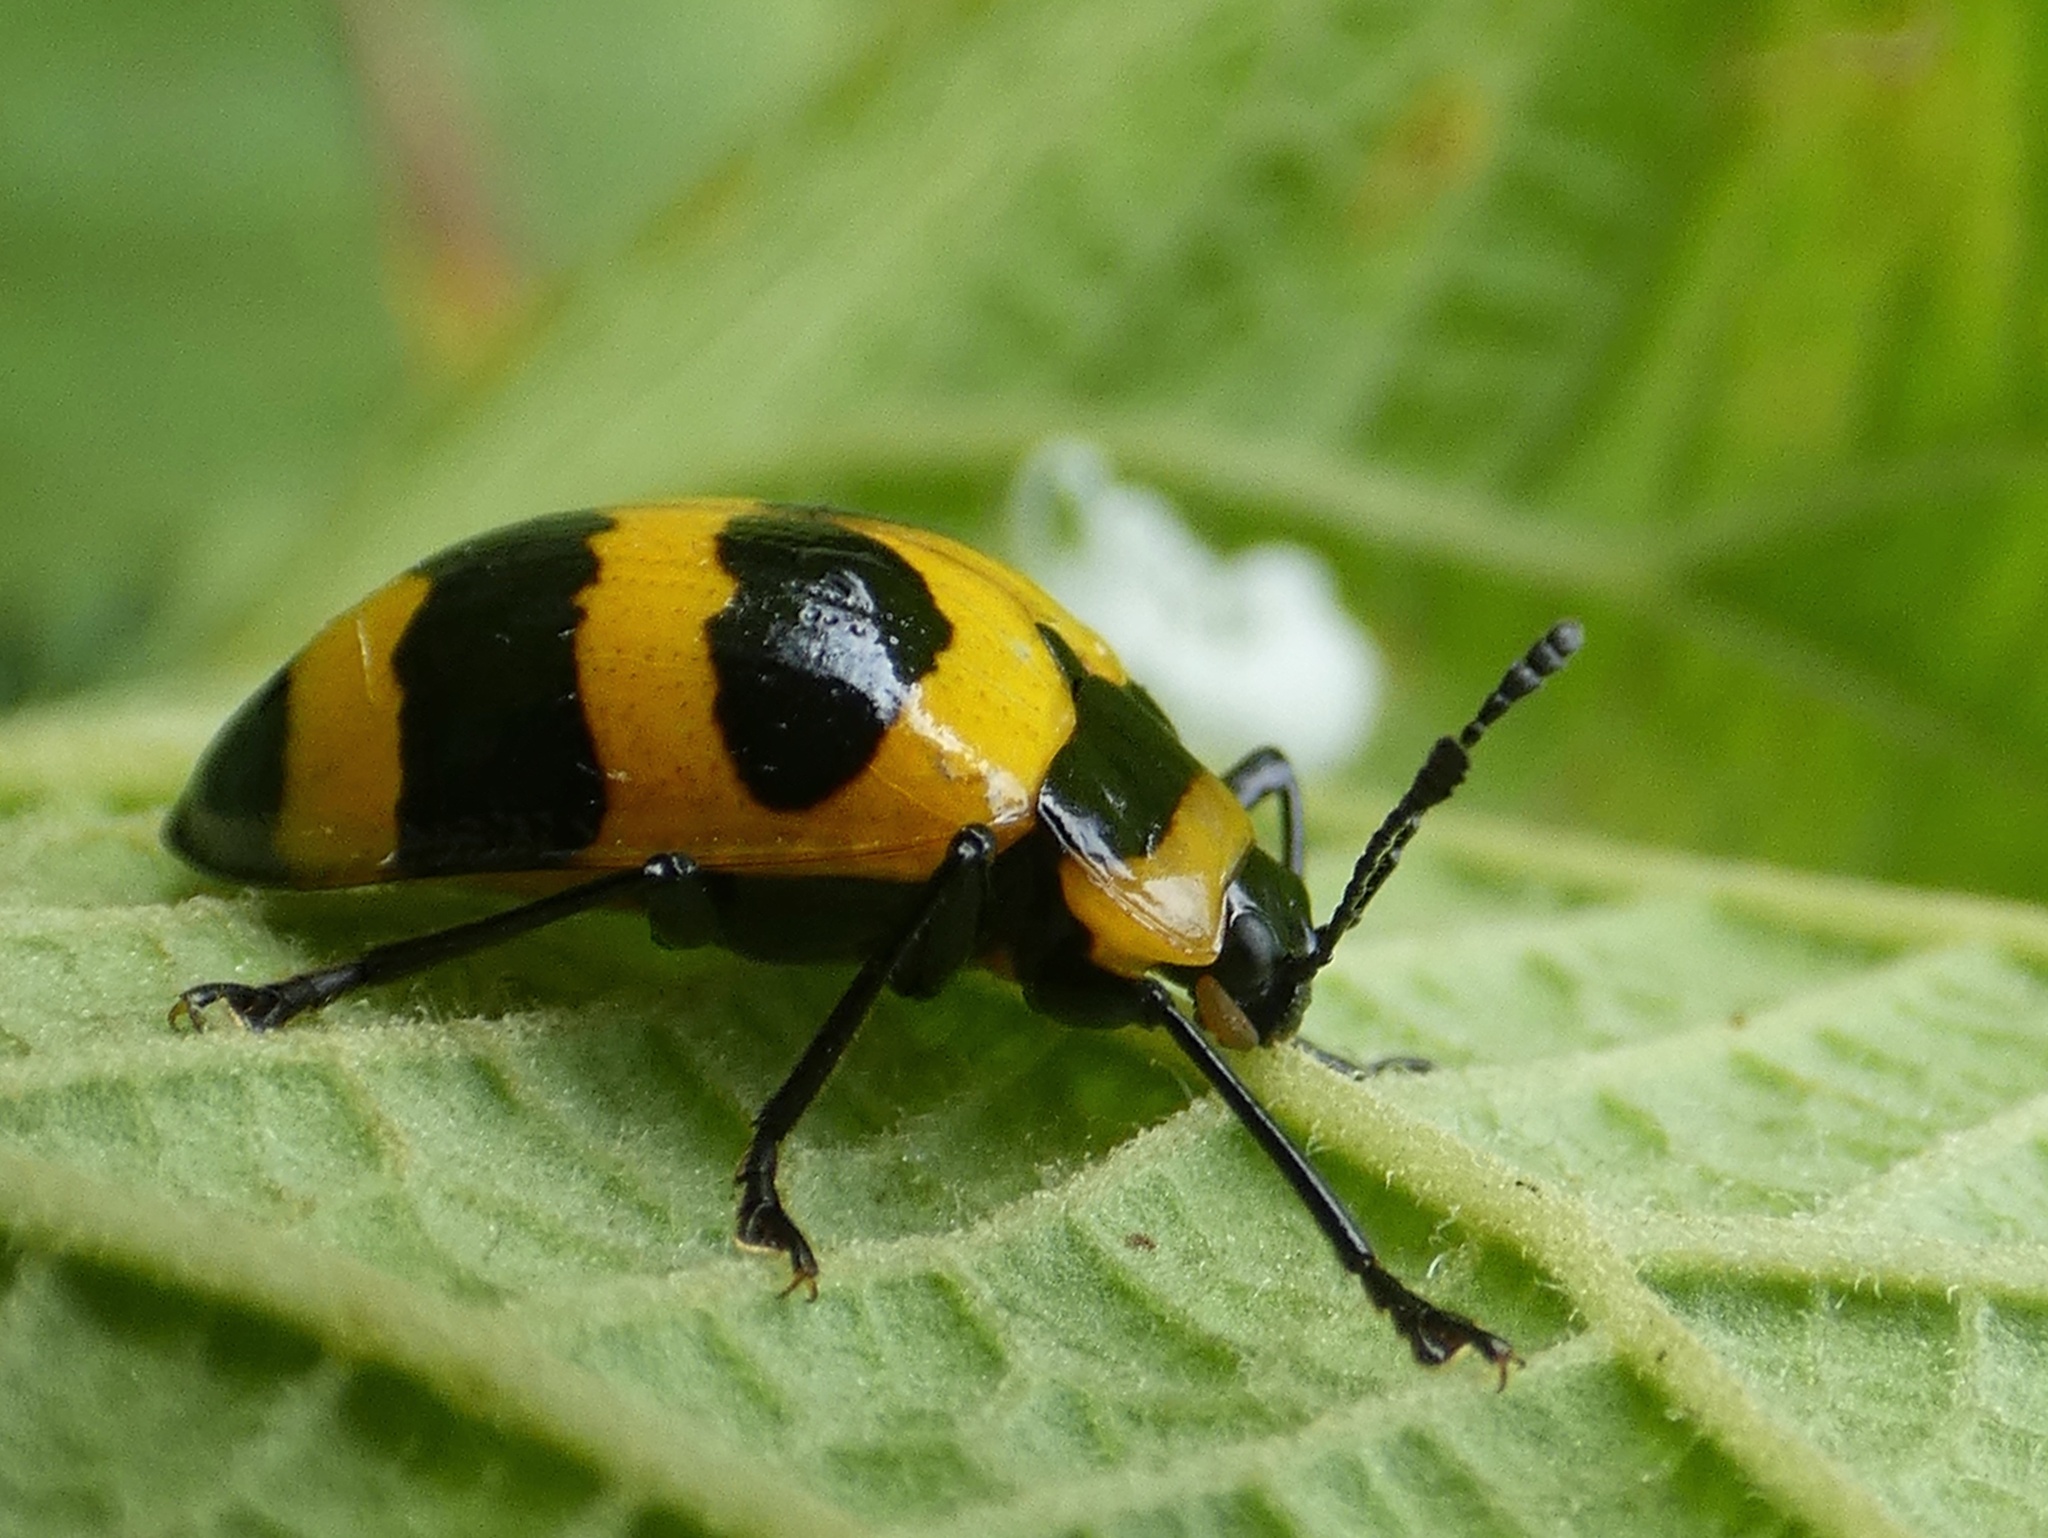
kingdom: Animalia
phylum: Arthropoda
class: Insecta
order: Coleoptera
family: Erotylidae
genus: Oligocorynus
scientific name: Oligocorynus
